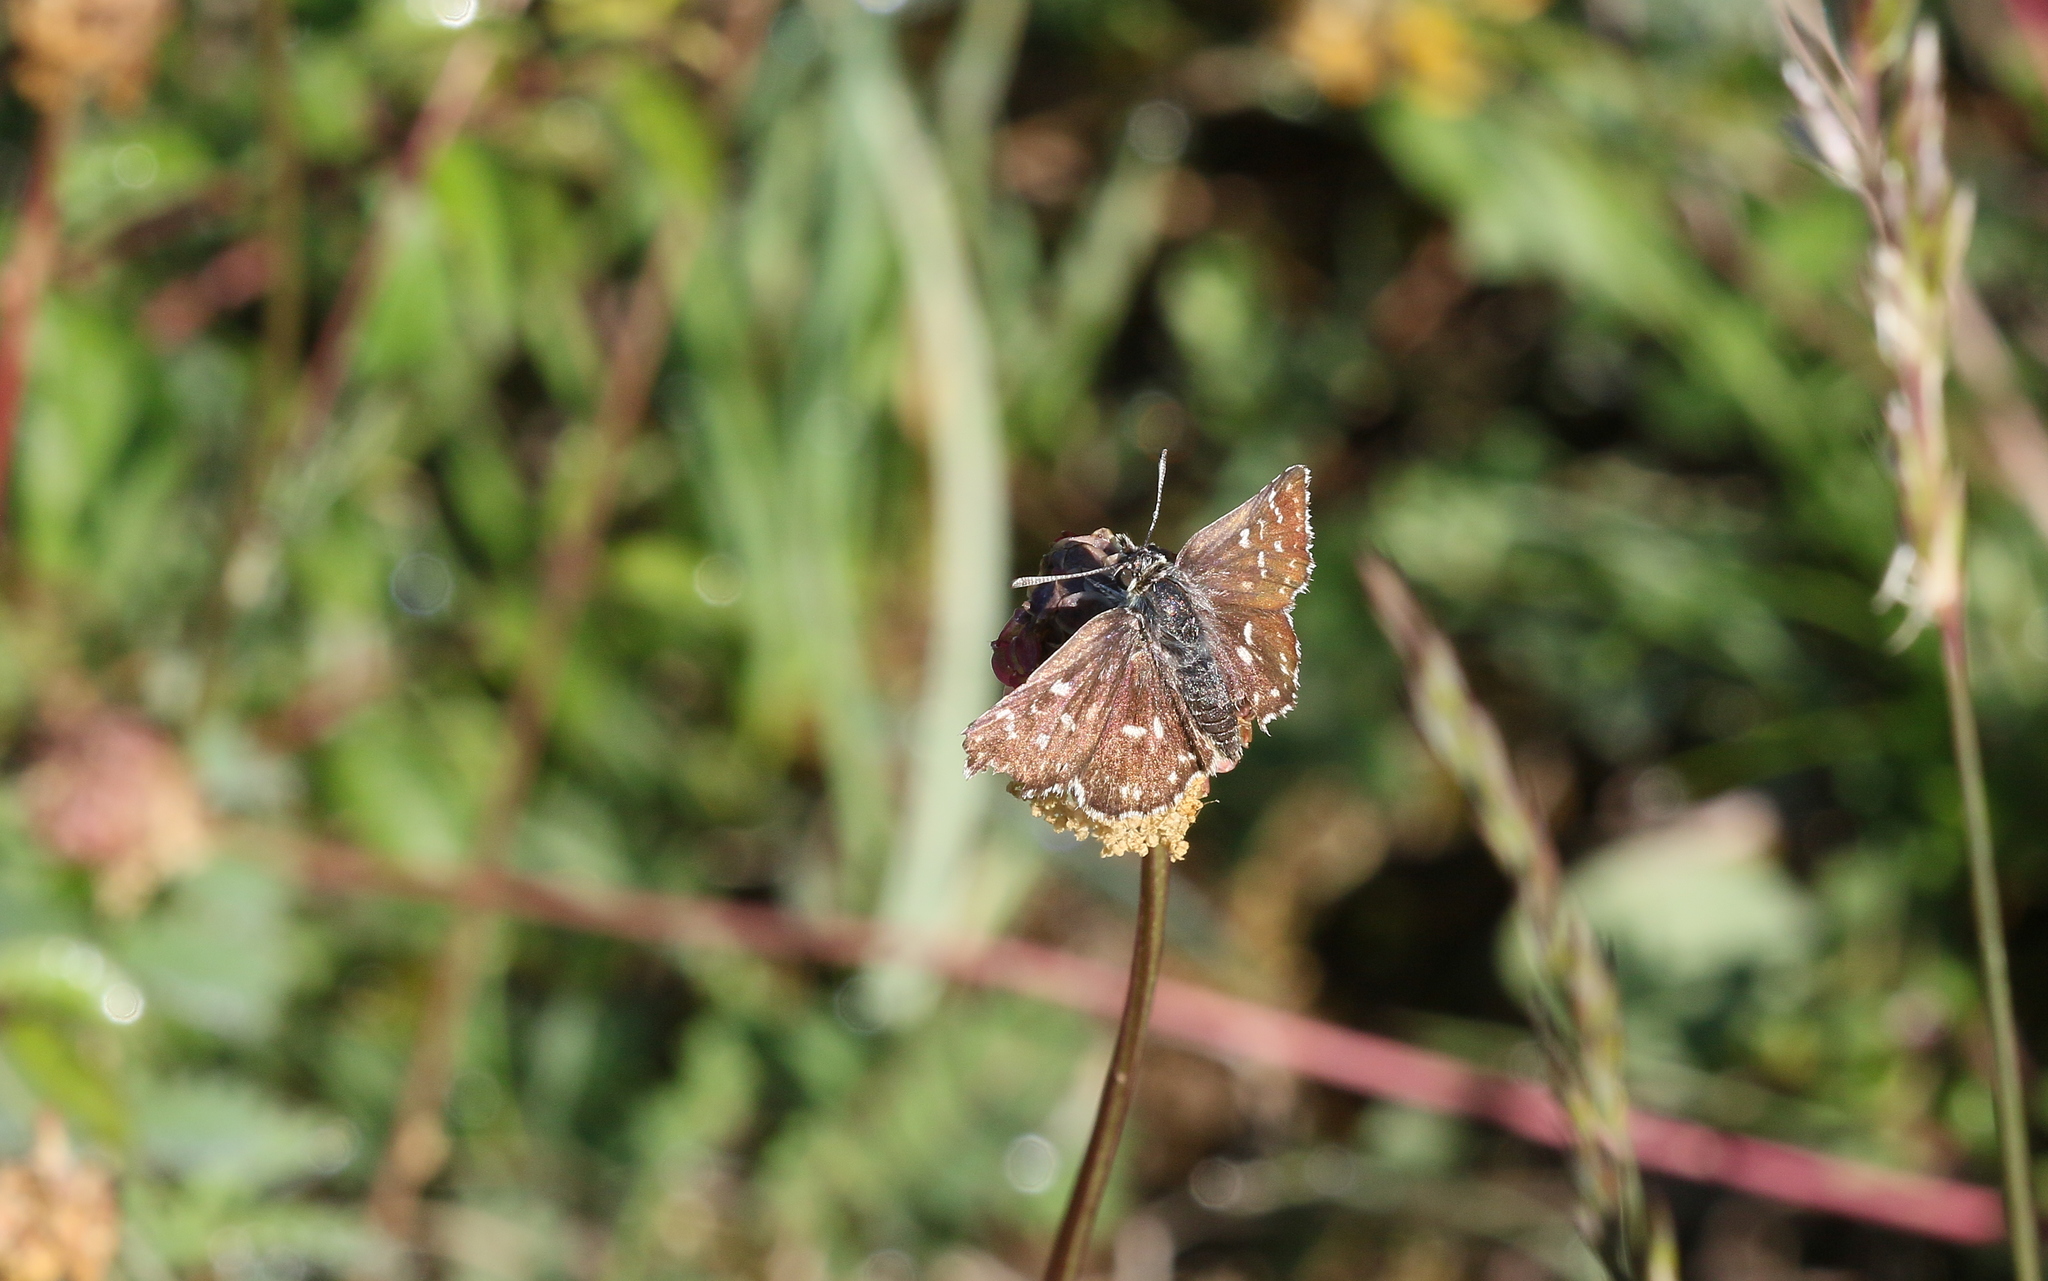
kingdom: Animalia
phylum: Arthropoda
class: Insecta
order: Lepidoptera
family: Hesperiidae
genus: Spialia
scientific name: Spialia sertorius
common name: Red underwing skipper
